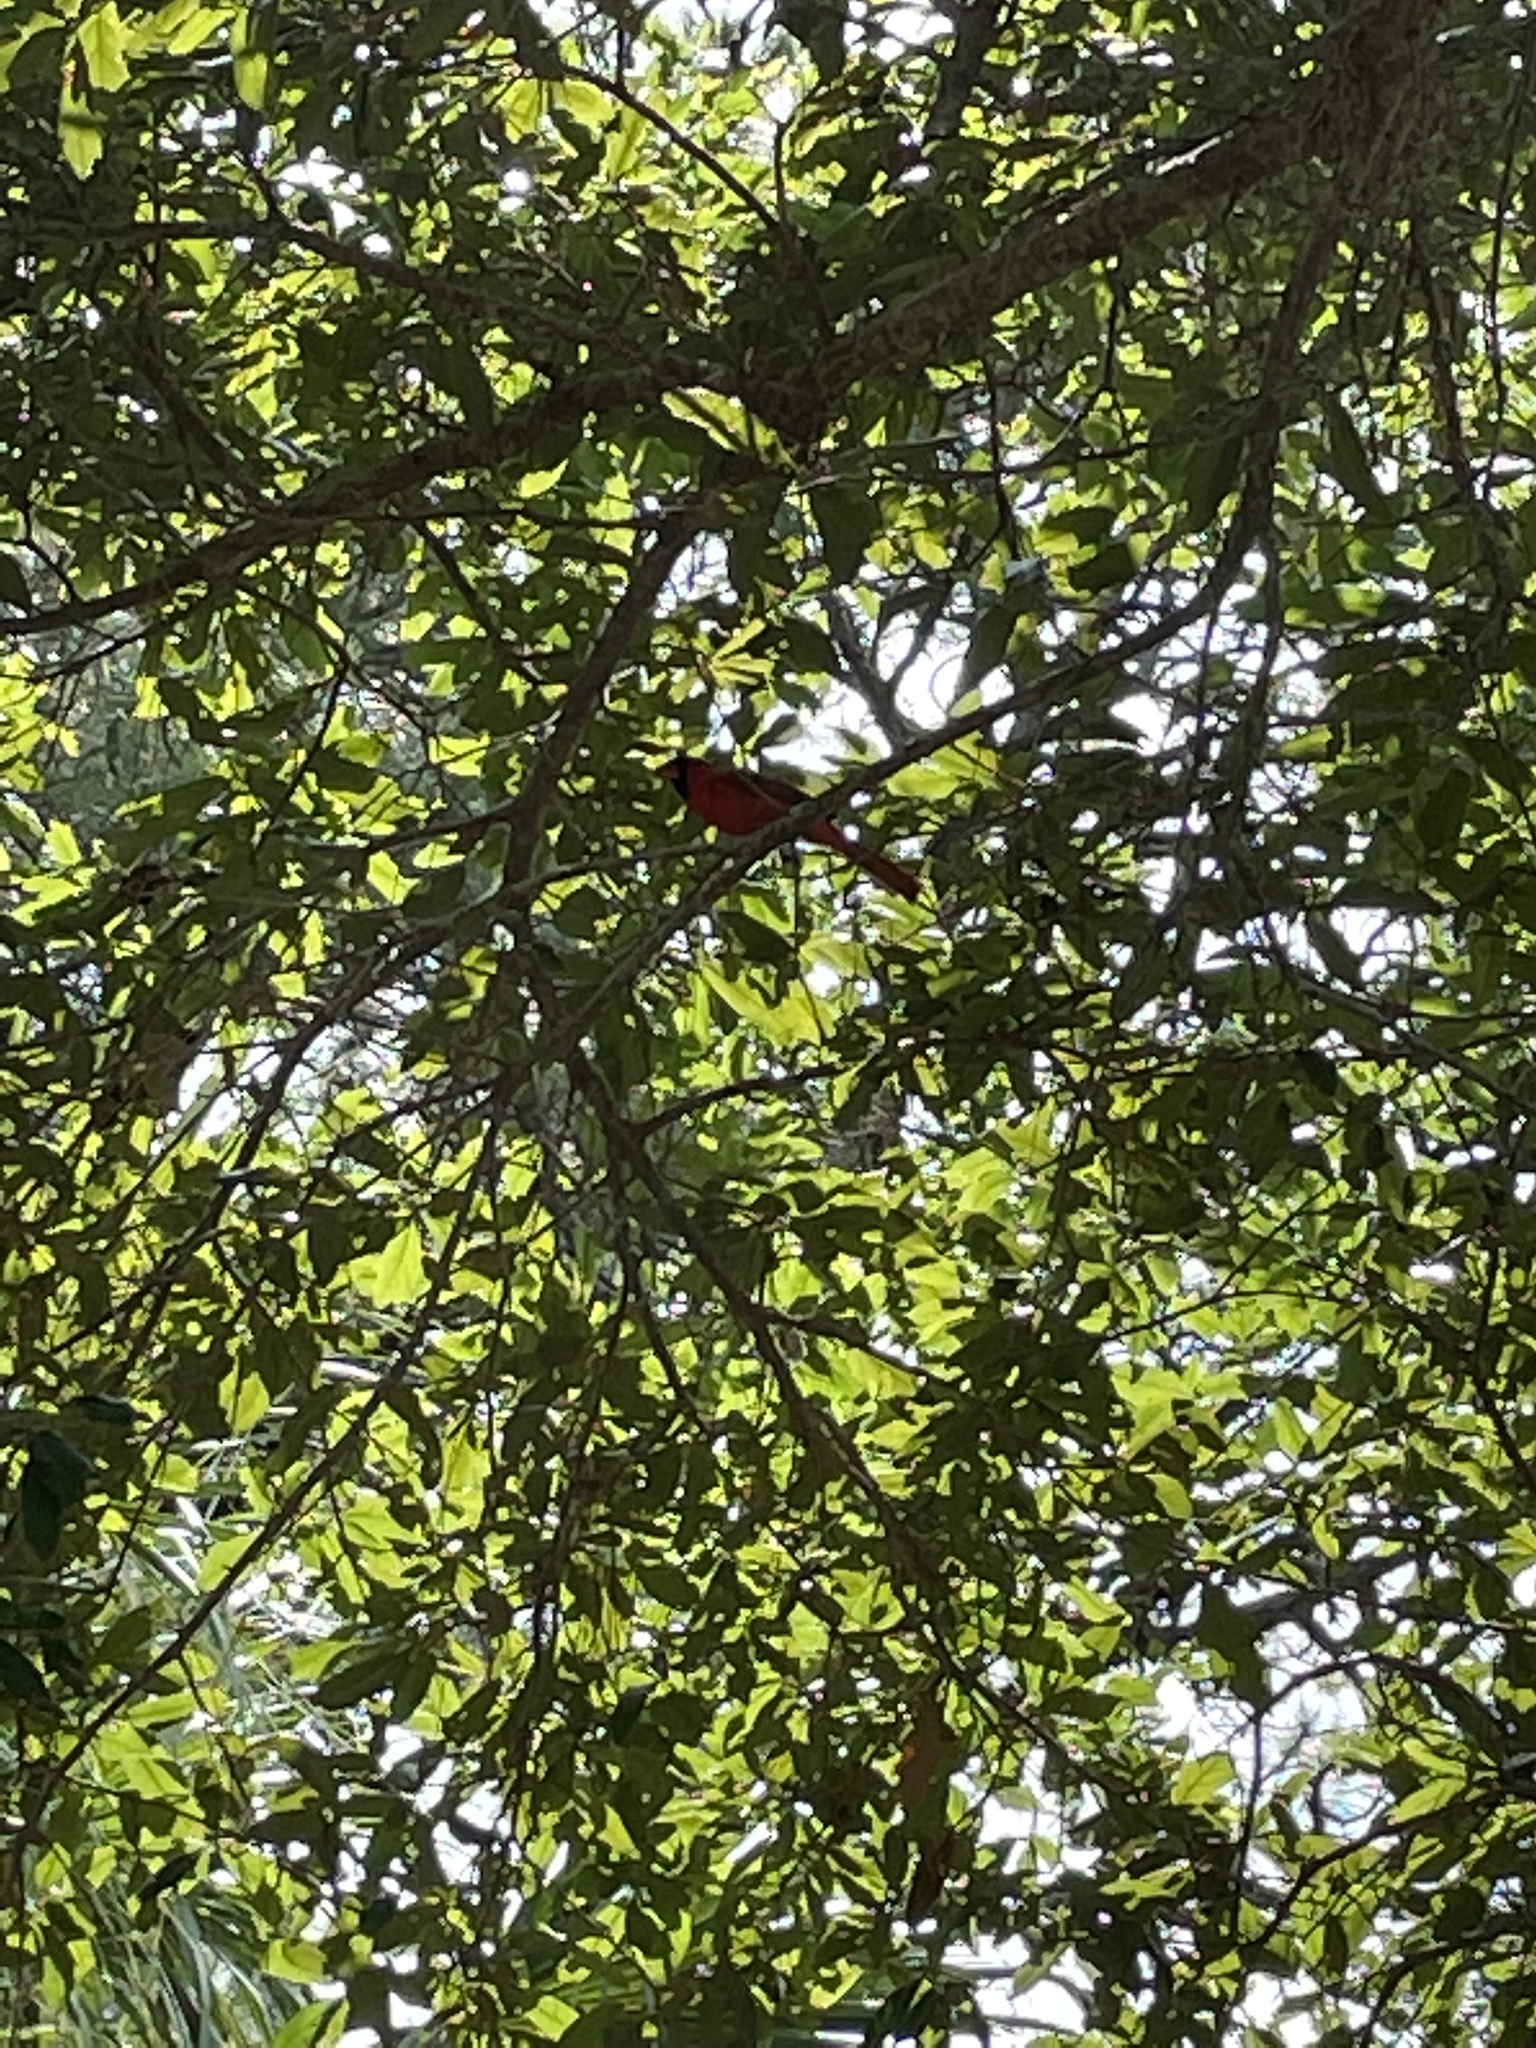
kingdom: Animalia
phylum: Chordata
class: Aves
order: Passeriformes
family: Cardinalidae
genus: Cardinalis
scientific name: Cardinalis cardinalis
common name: Northern cardinal
